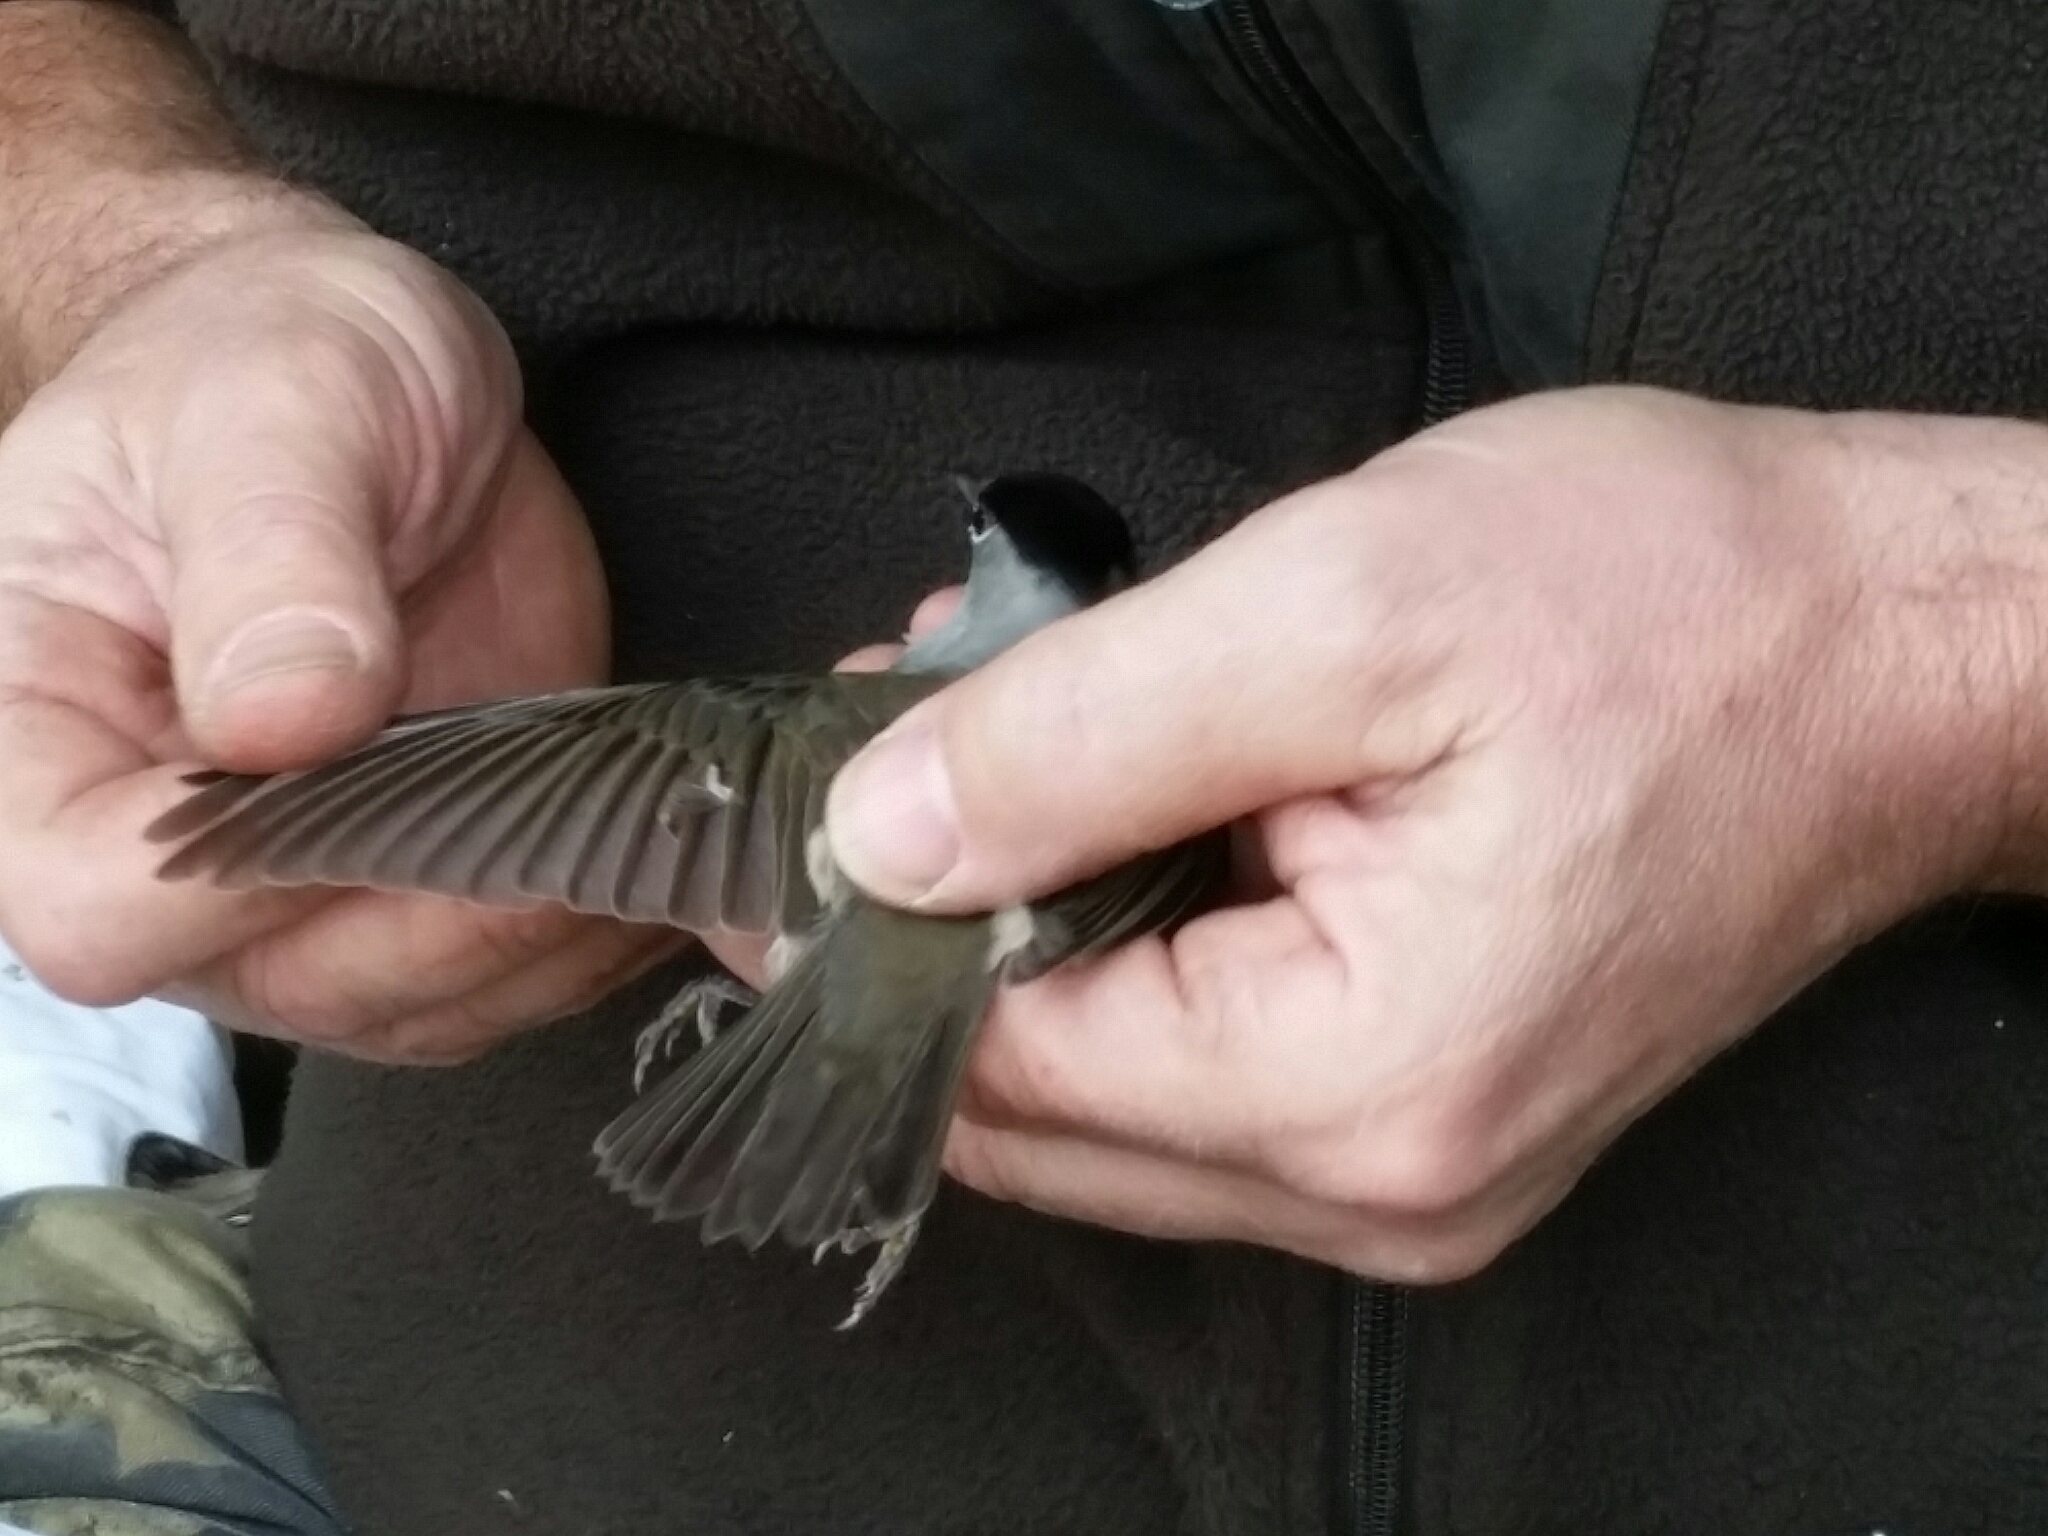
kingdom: Animalia
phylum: Chordata
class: Aves
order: Passeriformes
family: Sylviidae
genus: Sylvia
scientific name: Sylvia atricapilla
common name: Eurasian blackcap
